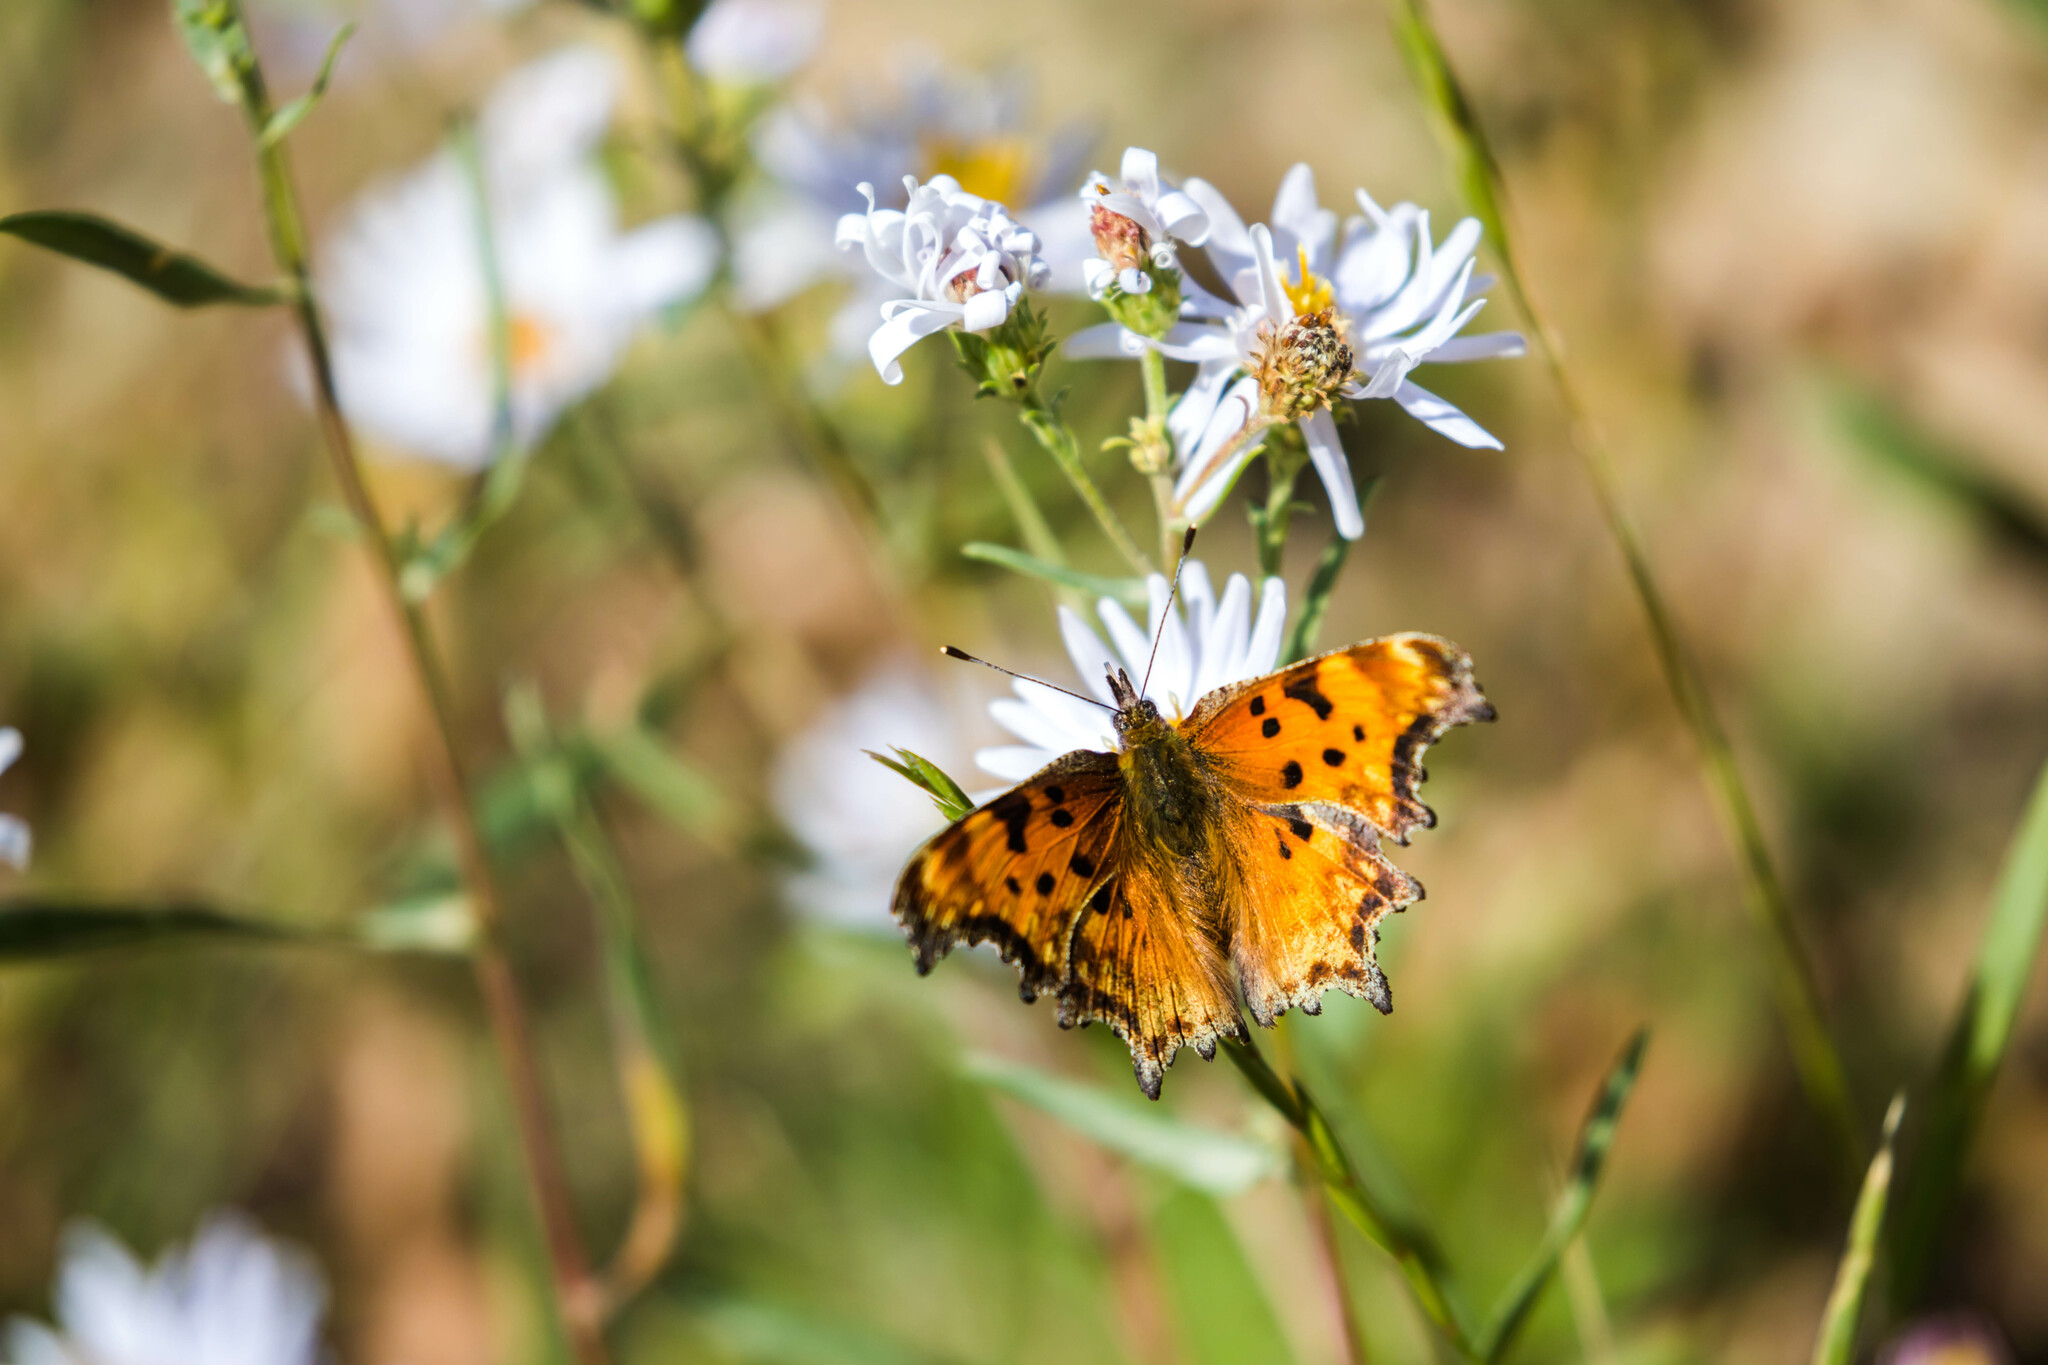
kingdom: Animalia
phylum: Arthropoda
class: Insecta
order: Lepidoptera
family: Nymphalidae
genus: Polygonia
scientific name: Polygonia gracilis
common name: Hoary comma
